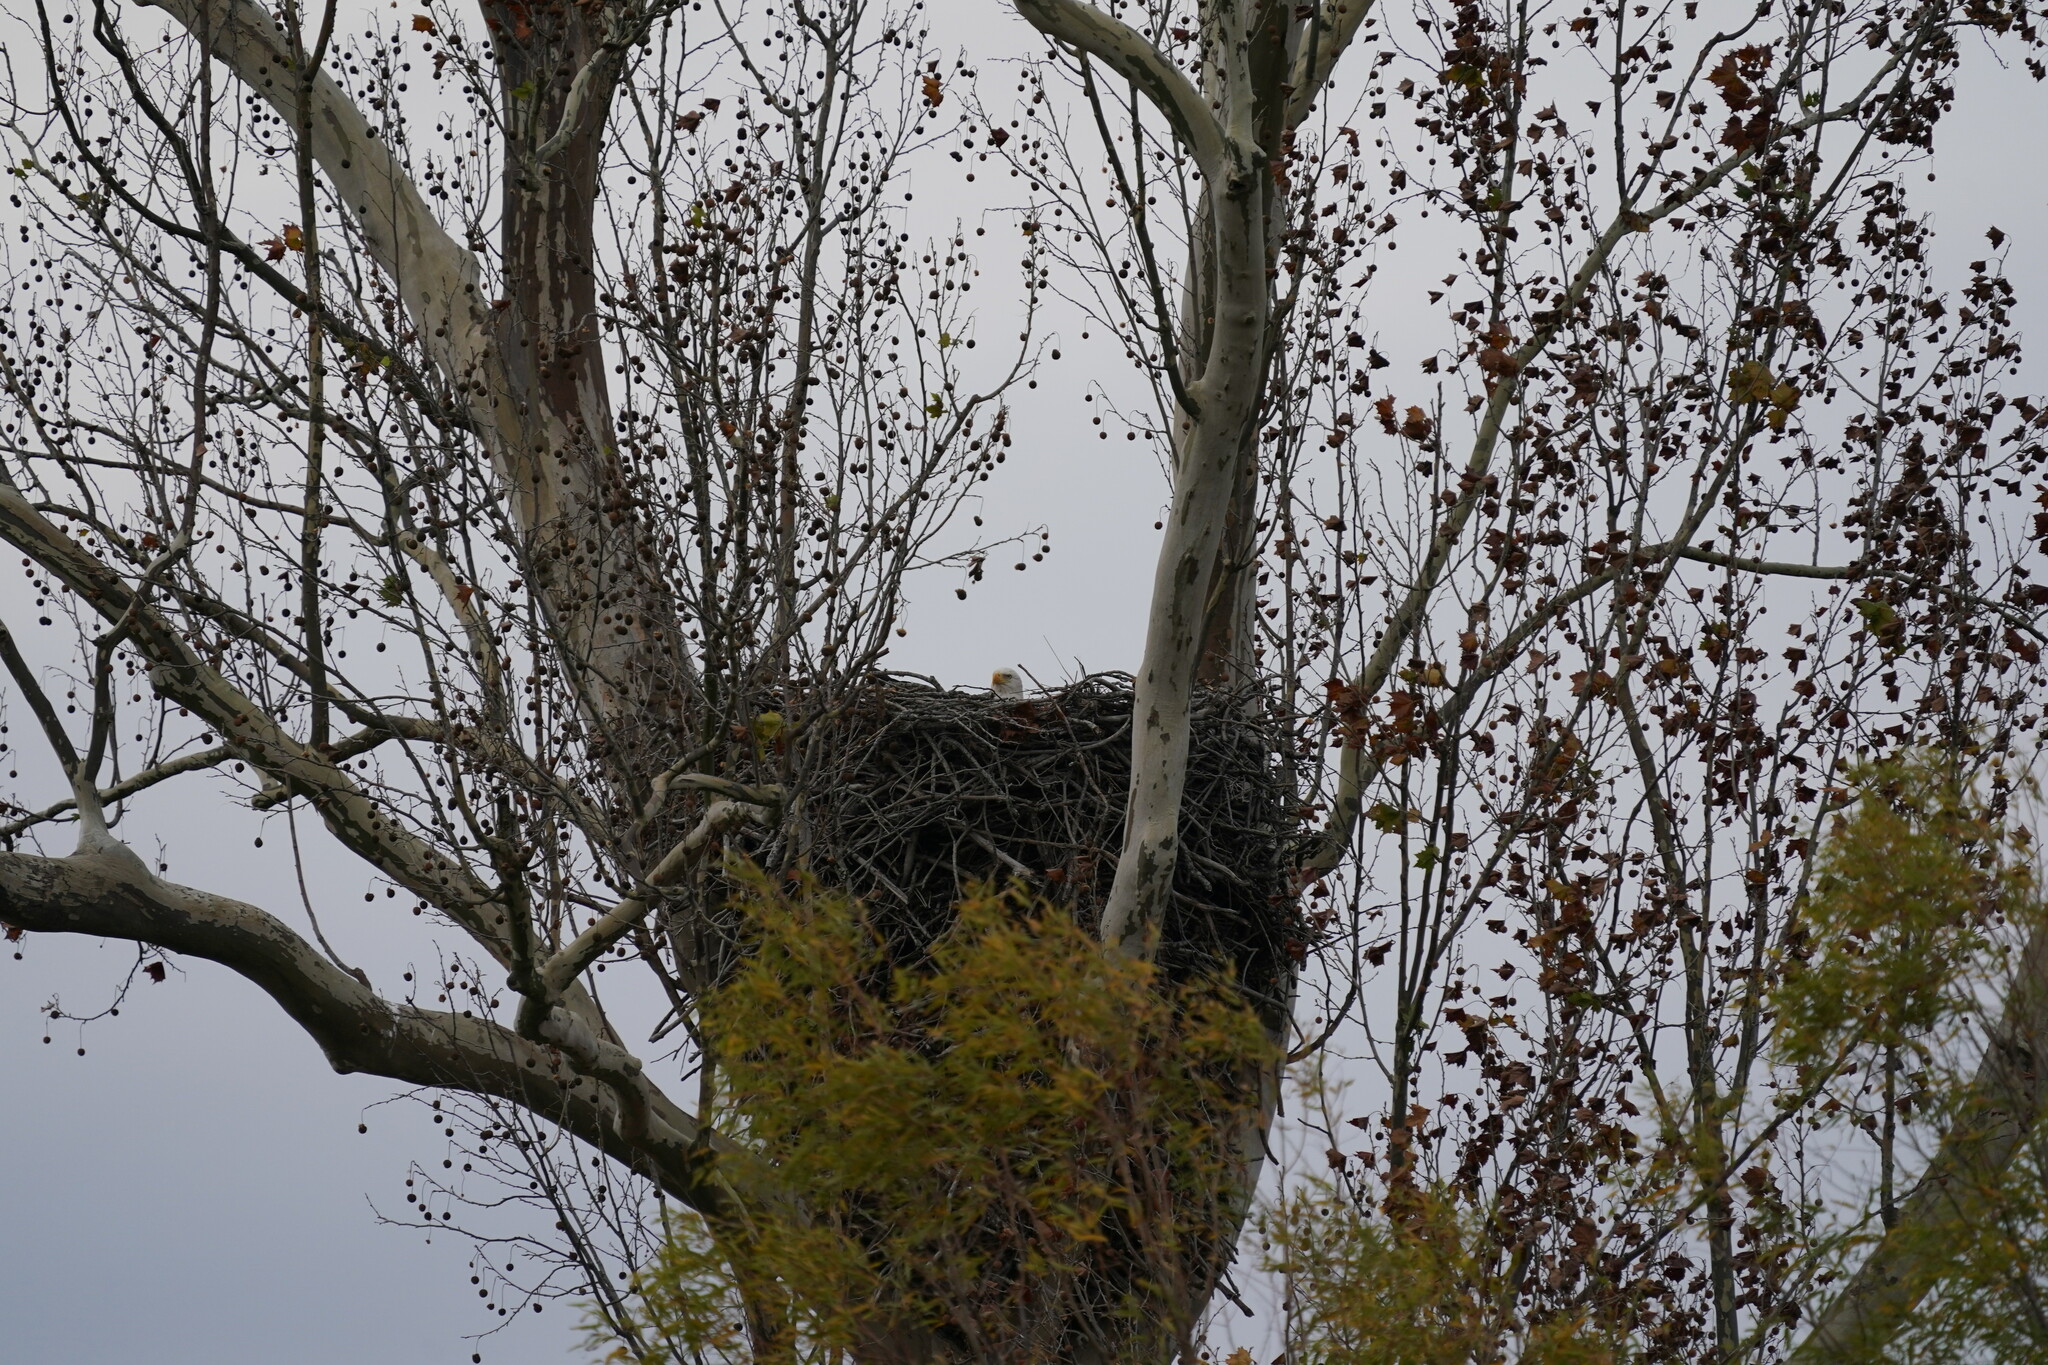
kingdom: Animalia
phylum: Chordata
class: Aves
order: Accipitriformes
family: Accipitridae
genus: Haliaeetus
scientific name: Haliaeetus leucocephalus
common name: Bald eagle
